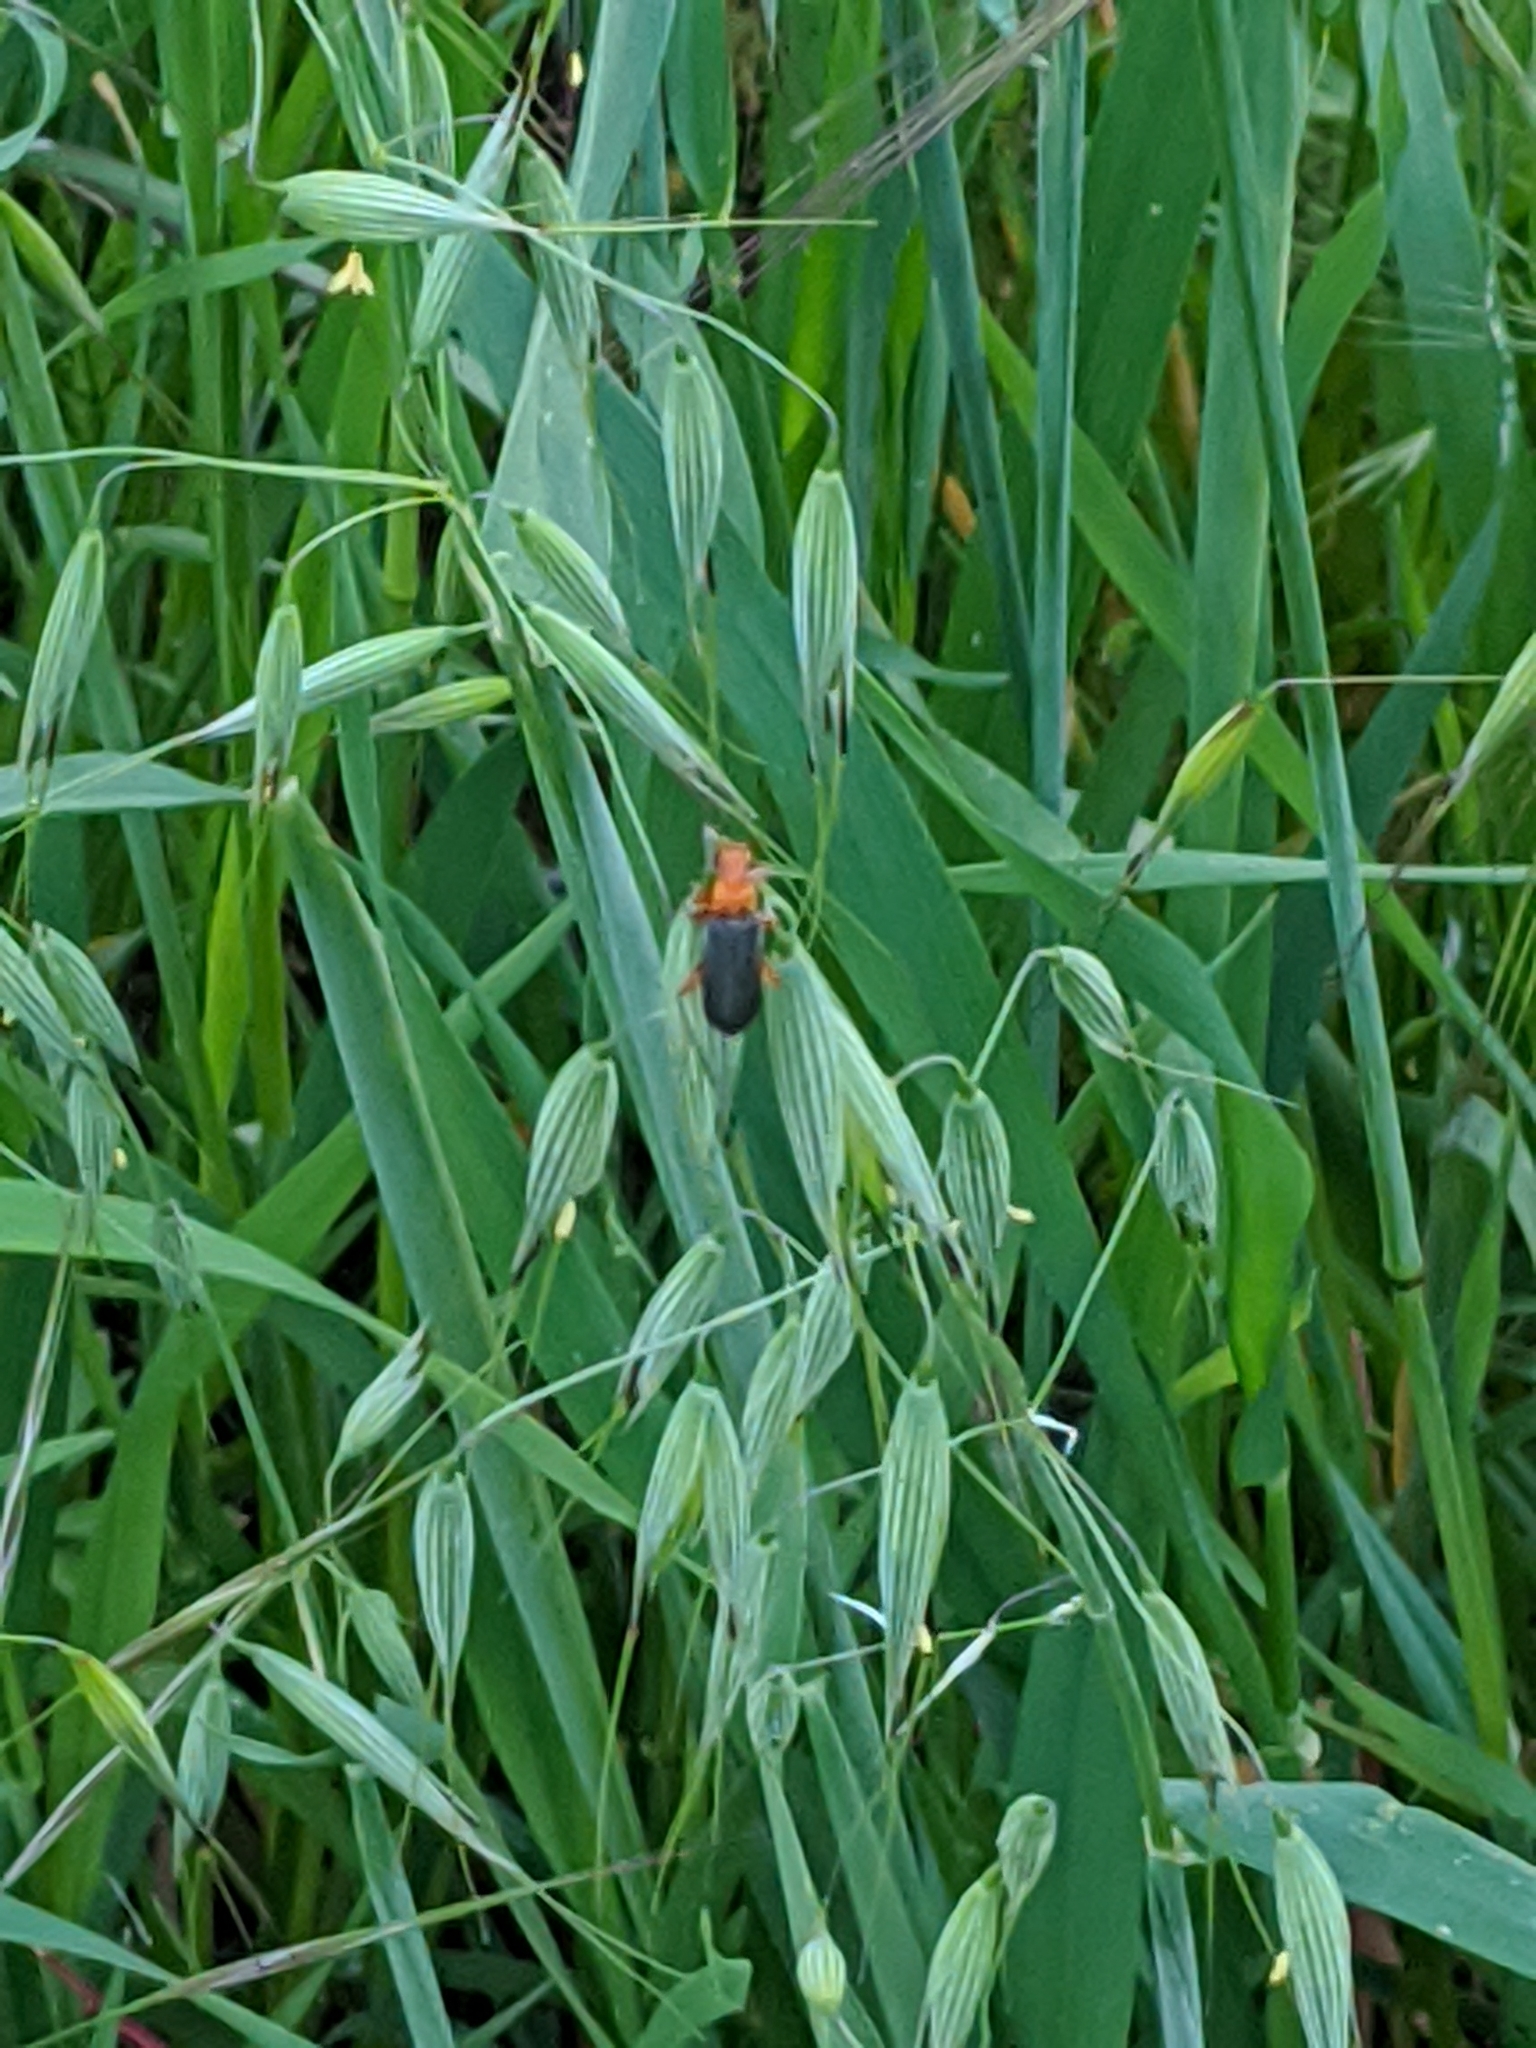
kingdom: Animalia
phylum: Arthropoda
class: Insecta
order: Coleoptera
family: Cantharidae
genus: Podabrus
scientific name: Podabrus pruinosus
